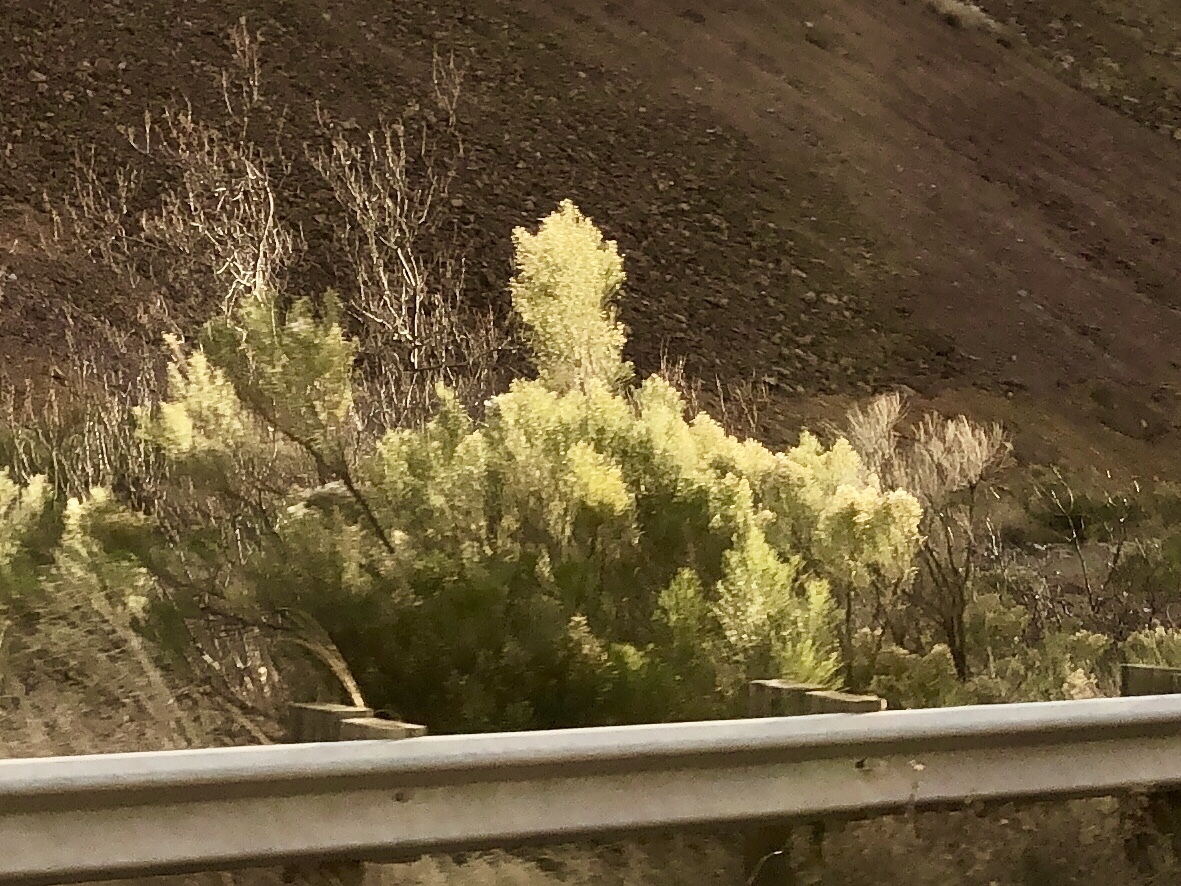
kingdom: Plantae
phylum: Tracheophyta
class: Magnoliopsida
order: Asterales
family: Asteraceae
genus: Baccharis
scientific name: Baccharis sarothroides
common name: Desert-broom
